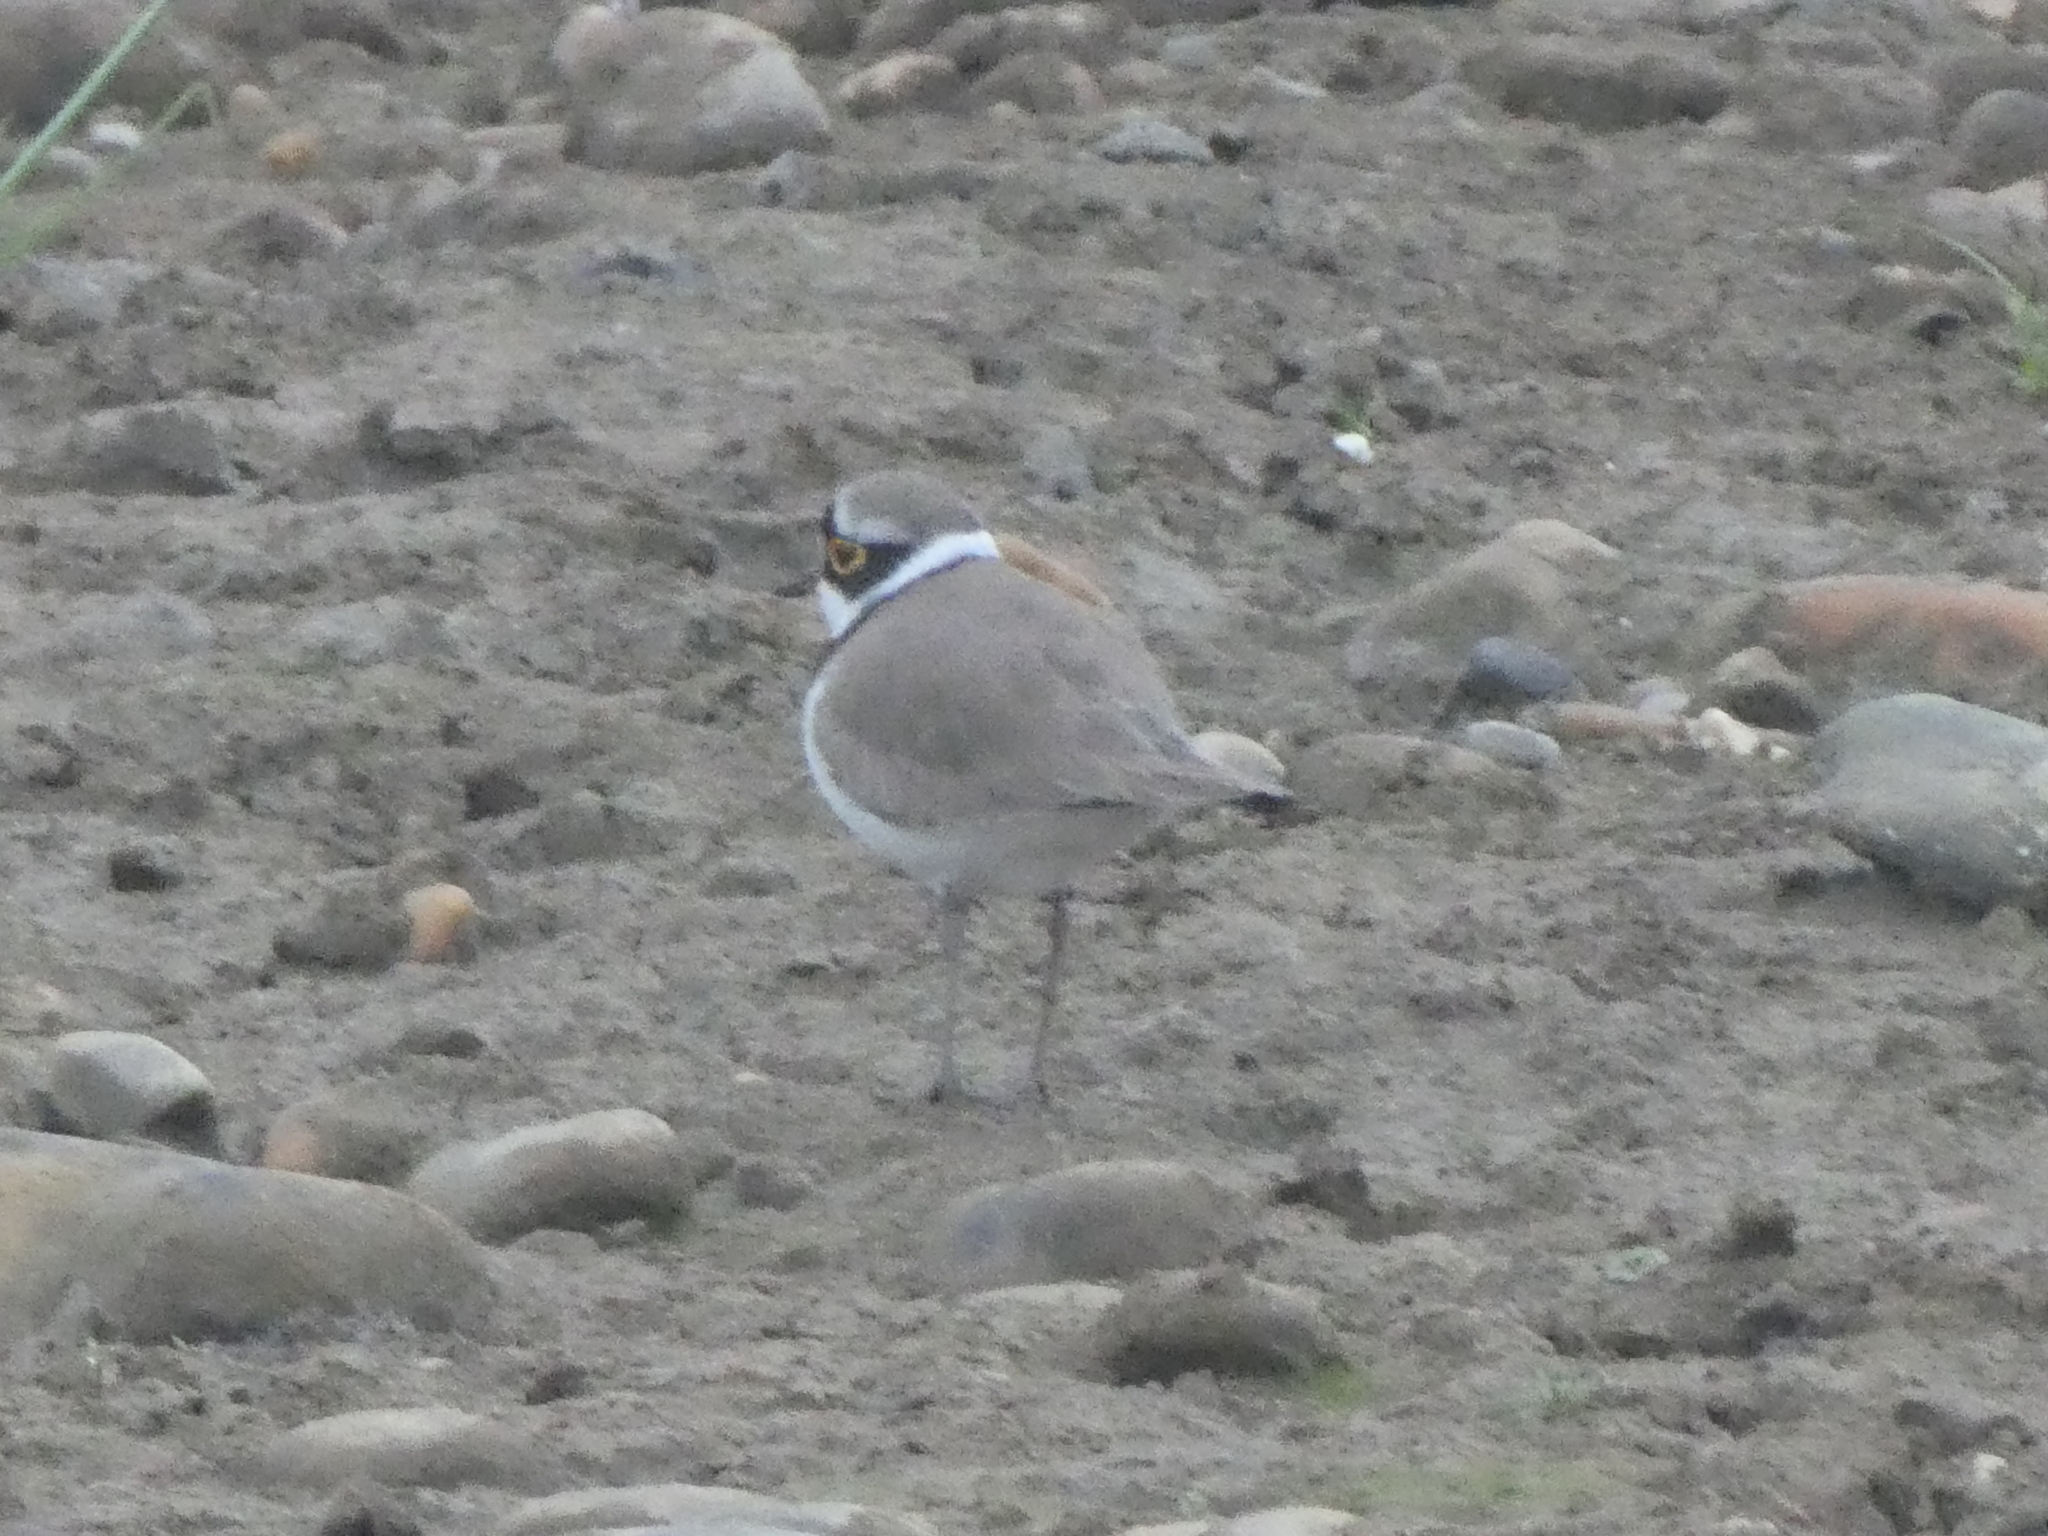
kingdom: Animalia
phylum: Chordata
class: Aves
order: Charadriiformes
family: Charadriidae
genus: Charadrius
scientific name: Charadrius dubius
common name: Little ringed plover
